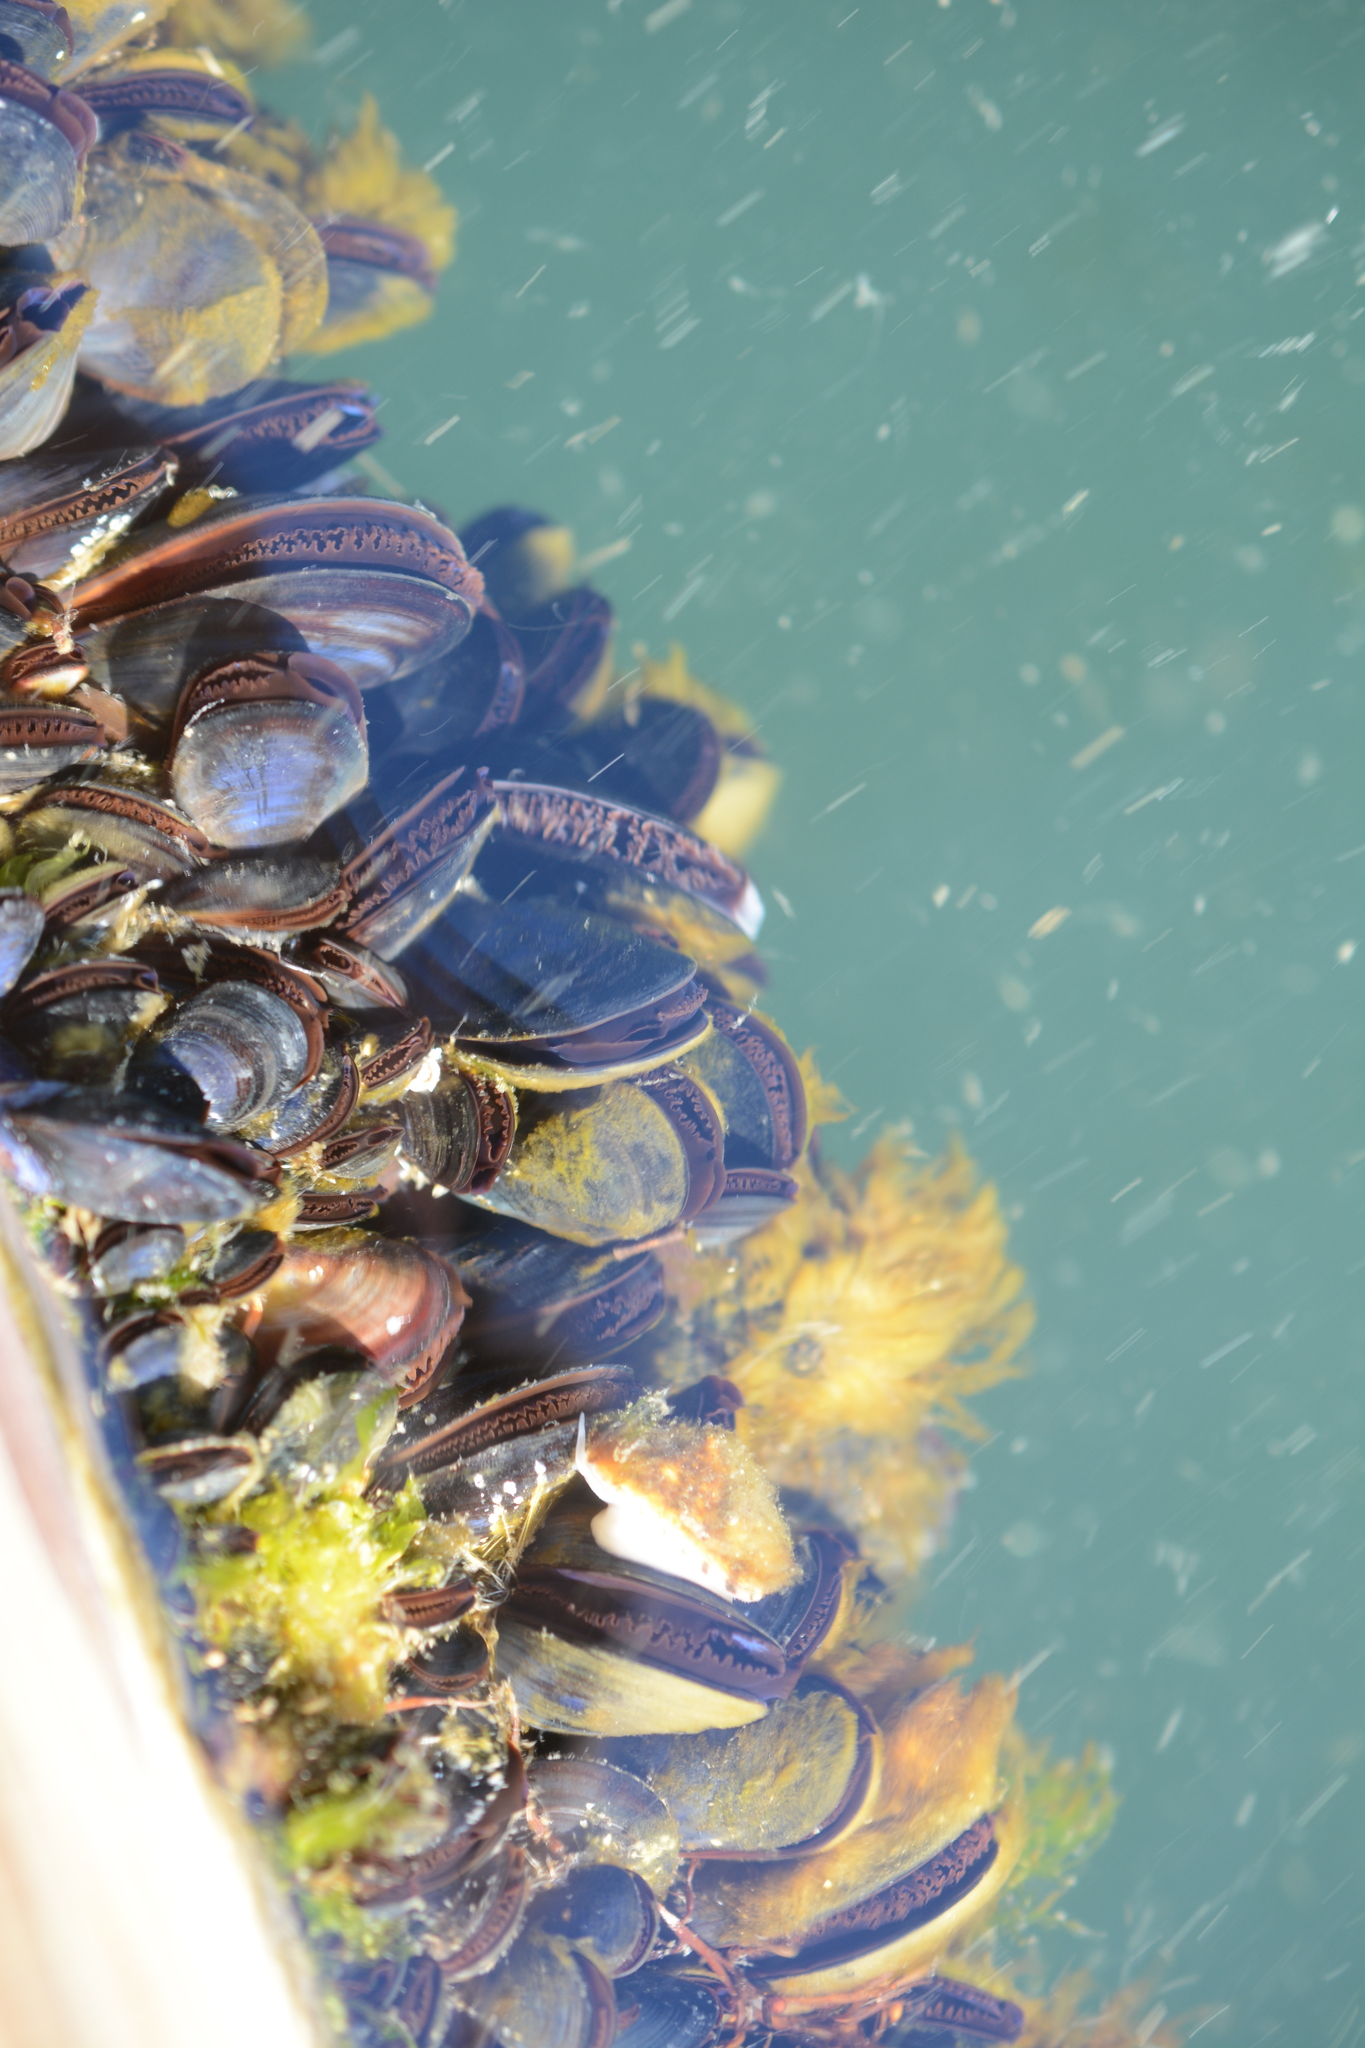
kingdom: Animalia
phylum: Mollusca
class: Bivalvia
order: Mytilida
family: Mytilidae
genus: Mytilus
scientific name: Mytilus
